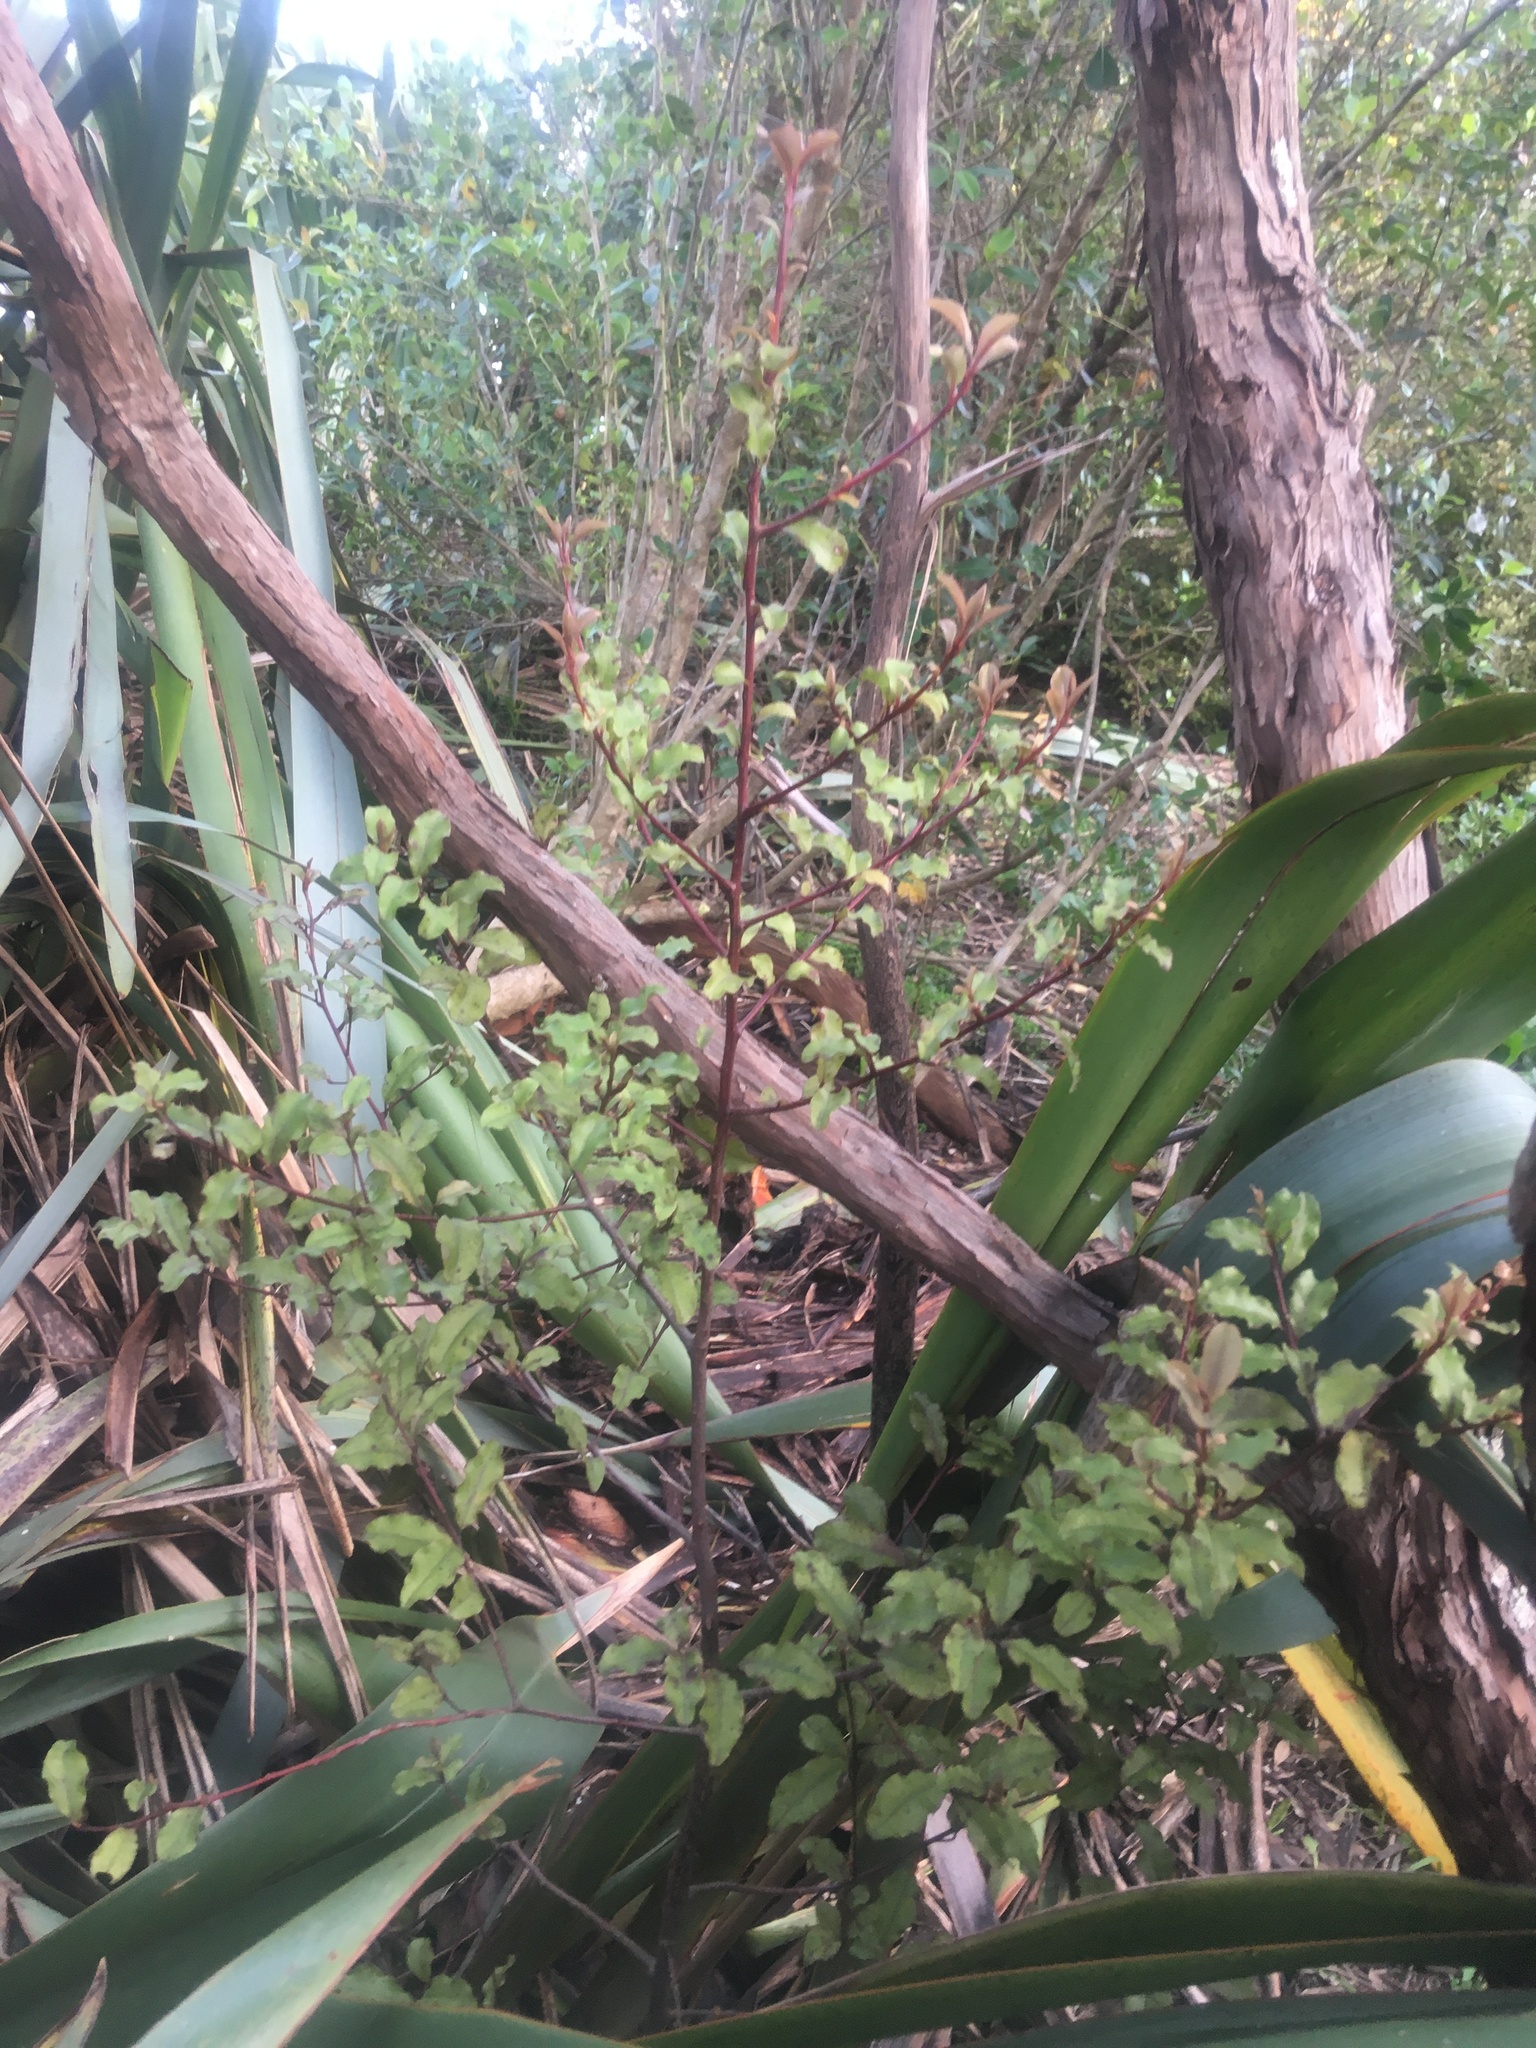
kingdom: Plantae
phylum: Tracheophyta
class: Magnoliopsida
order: Ericales
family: Primulaceae
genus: Myrsine
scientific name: Myrsine australis
